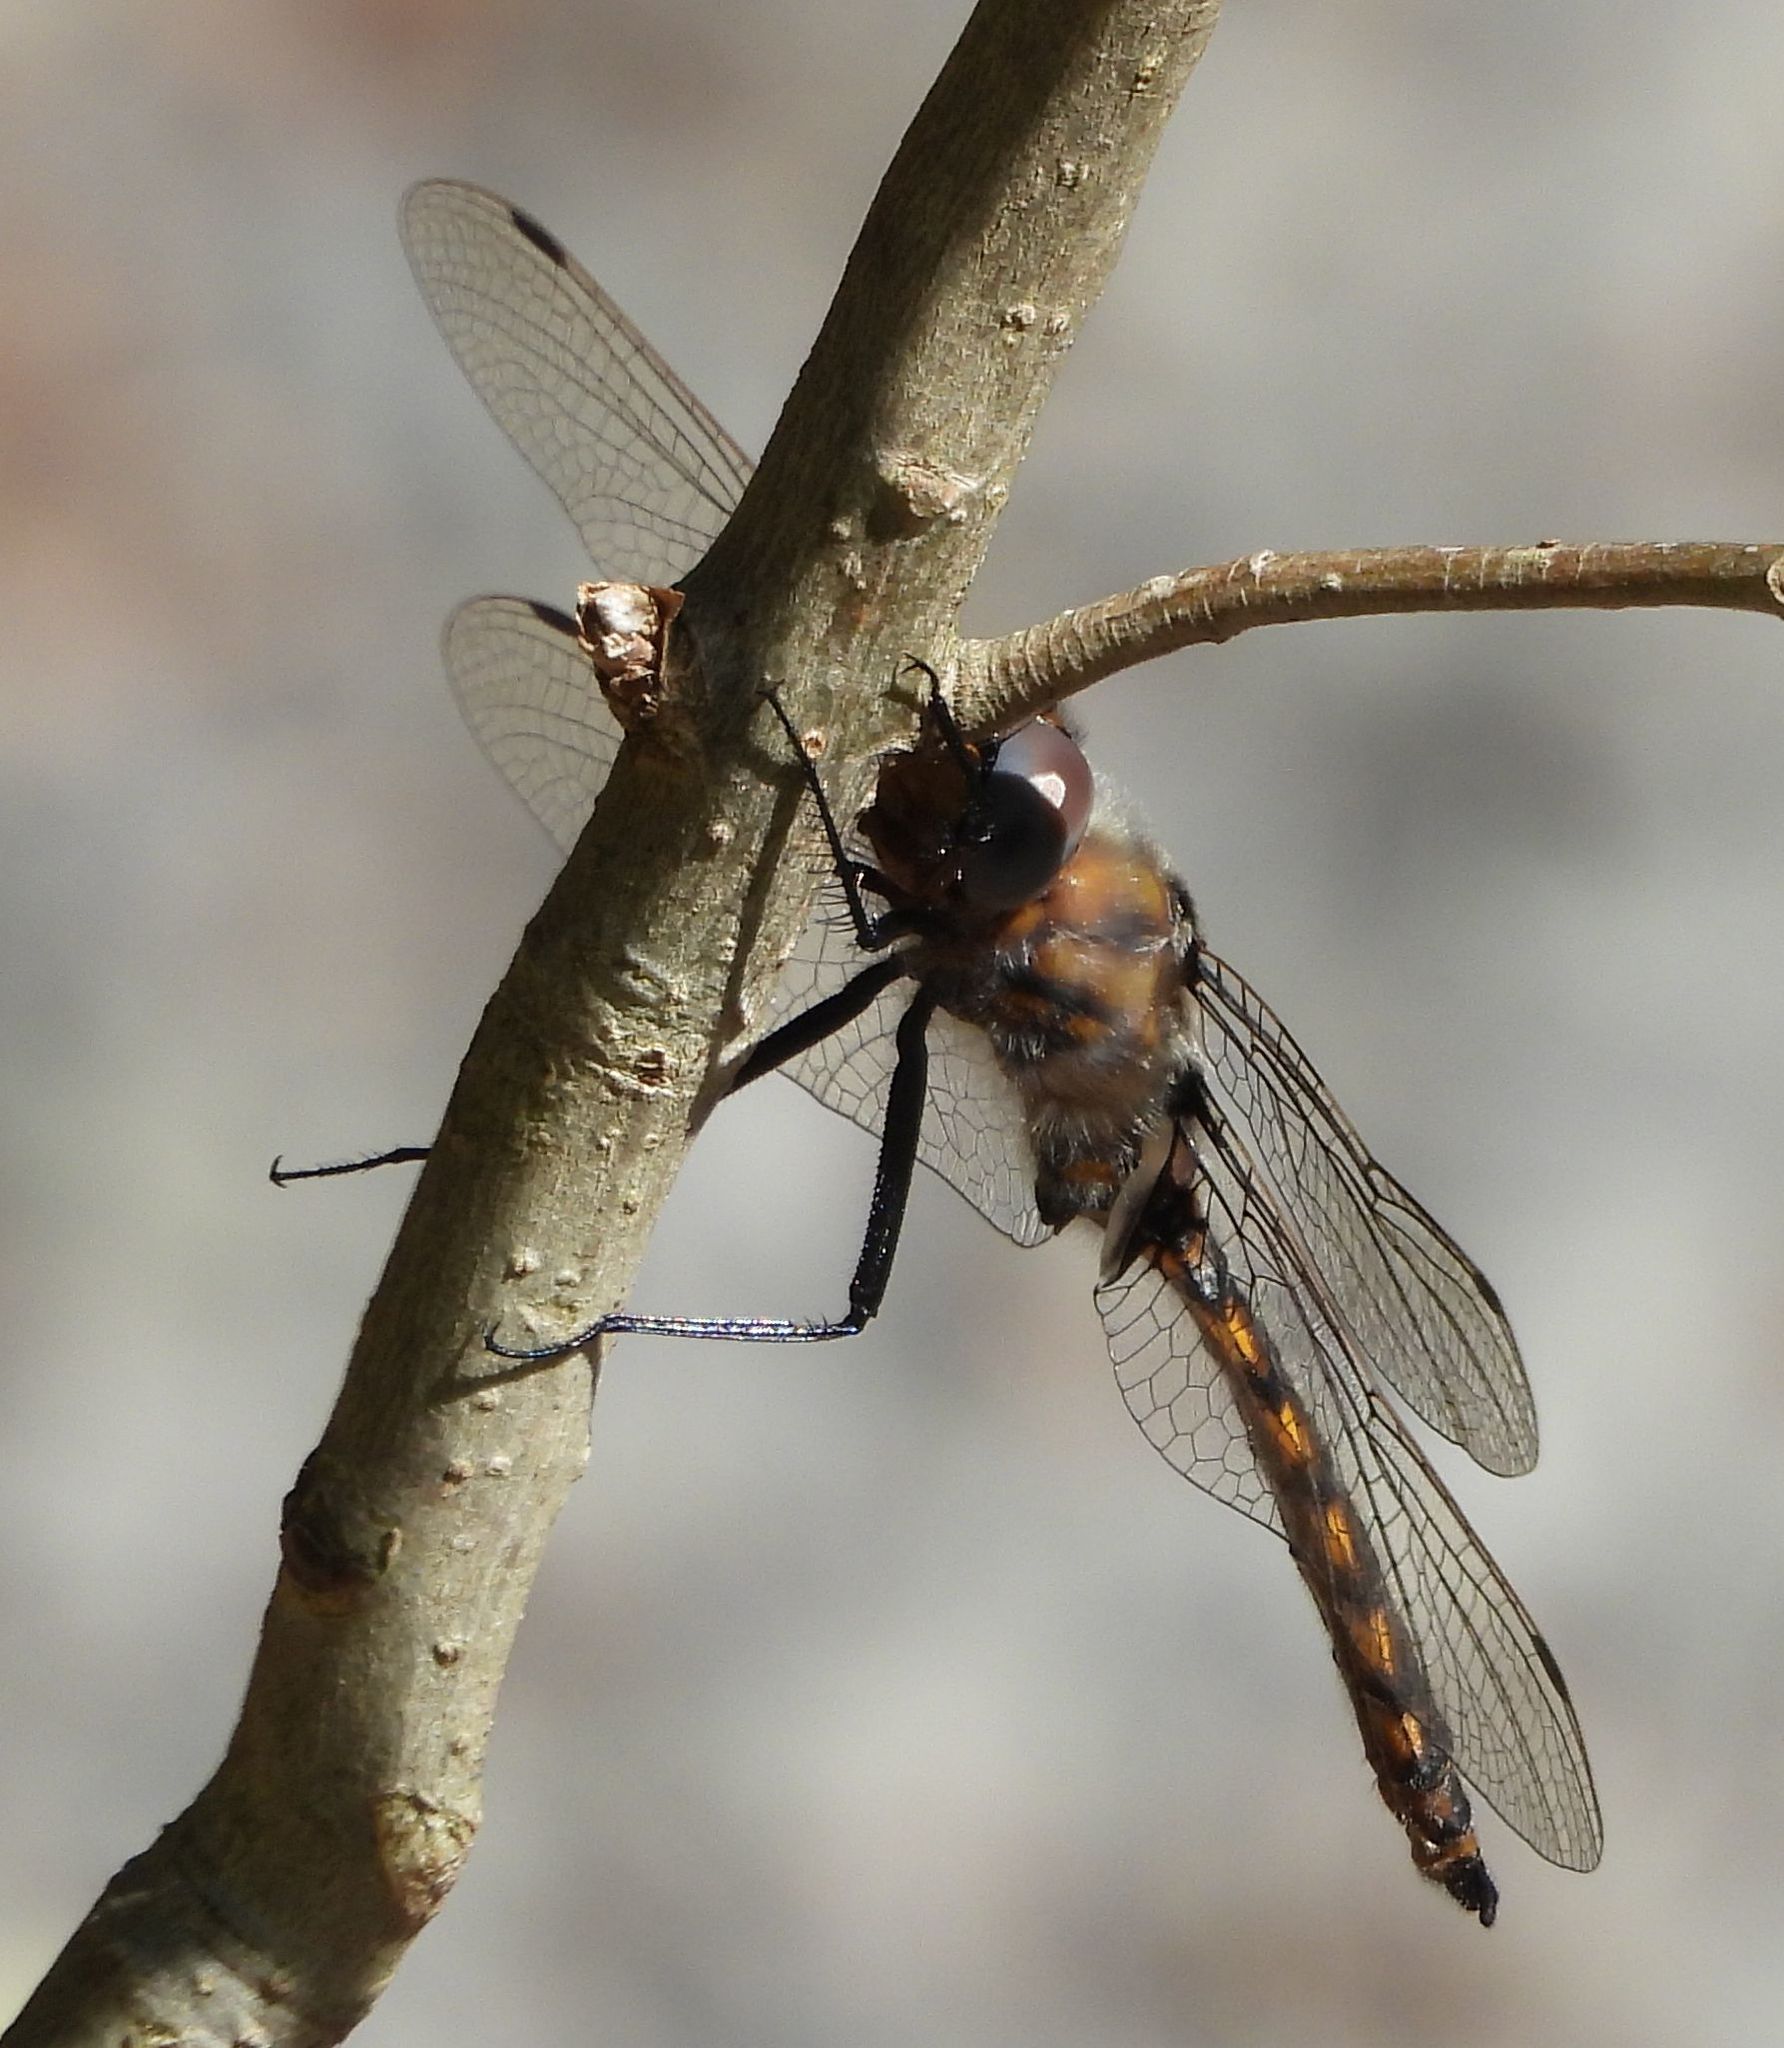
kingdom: Animalia
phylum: Arthropoda
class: Insecta
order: Odonata
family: Corduliidae
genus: Epitheca
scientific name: Epitheca canis
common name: Beaverpond baskettail
